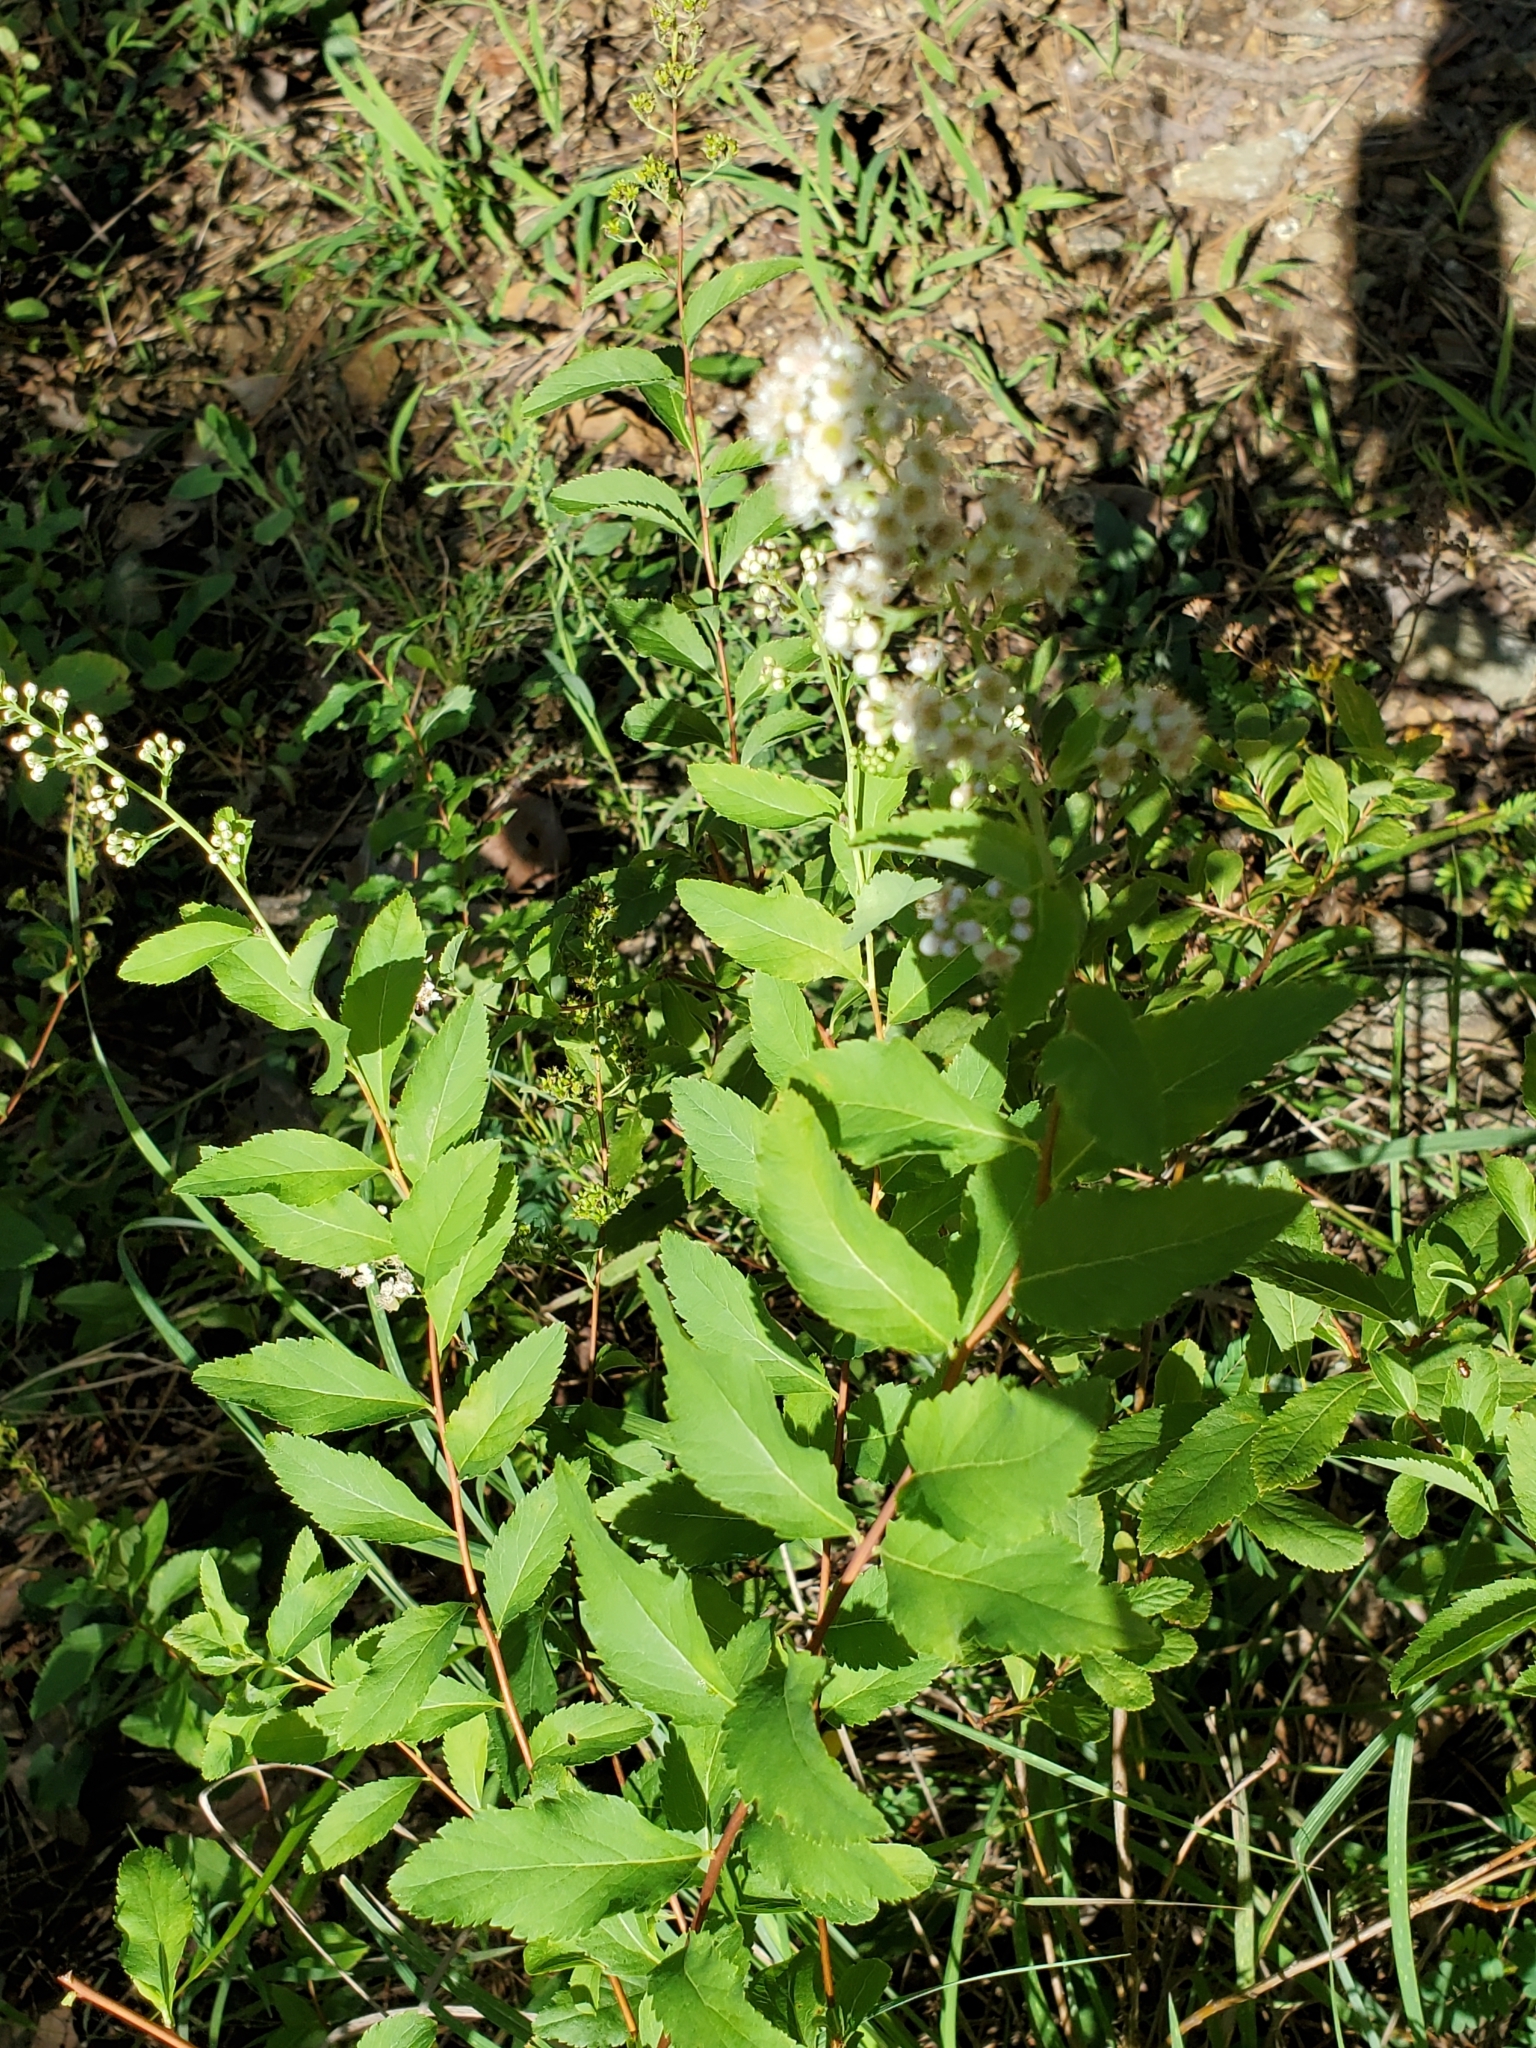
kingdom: Plantae
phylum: Tracheophyta
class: Magnoliopsida
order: Rosales
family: Rosaceae
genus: Spiraea
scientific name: Spiraea alba
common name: Pale bridewort
